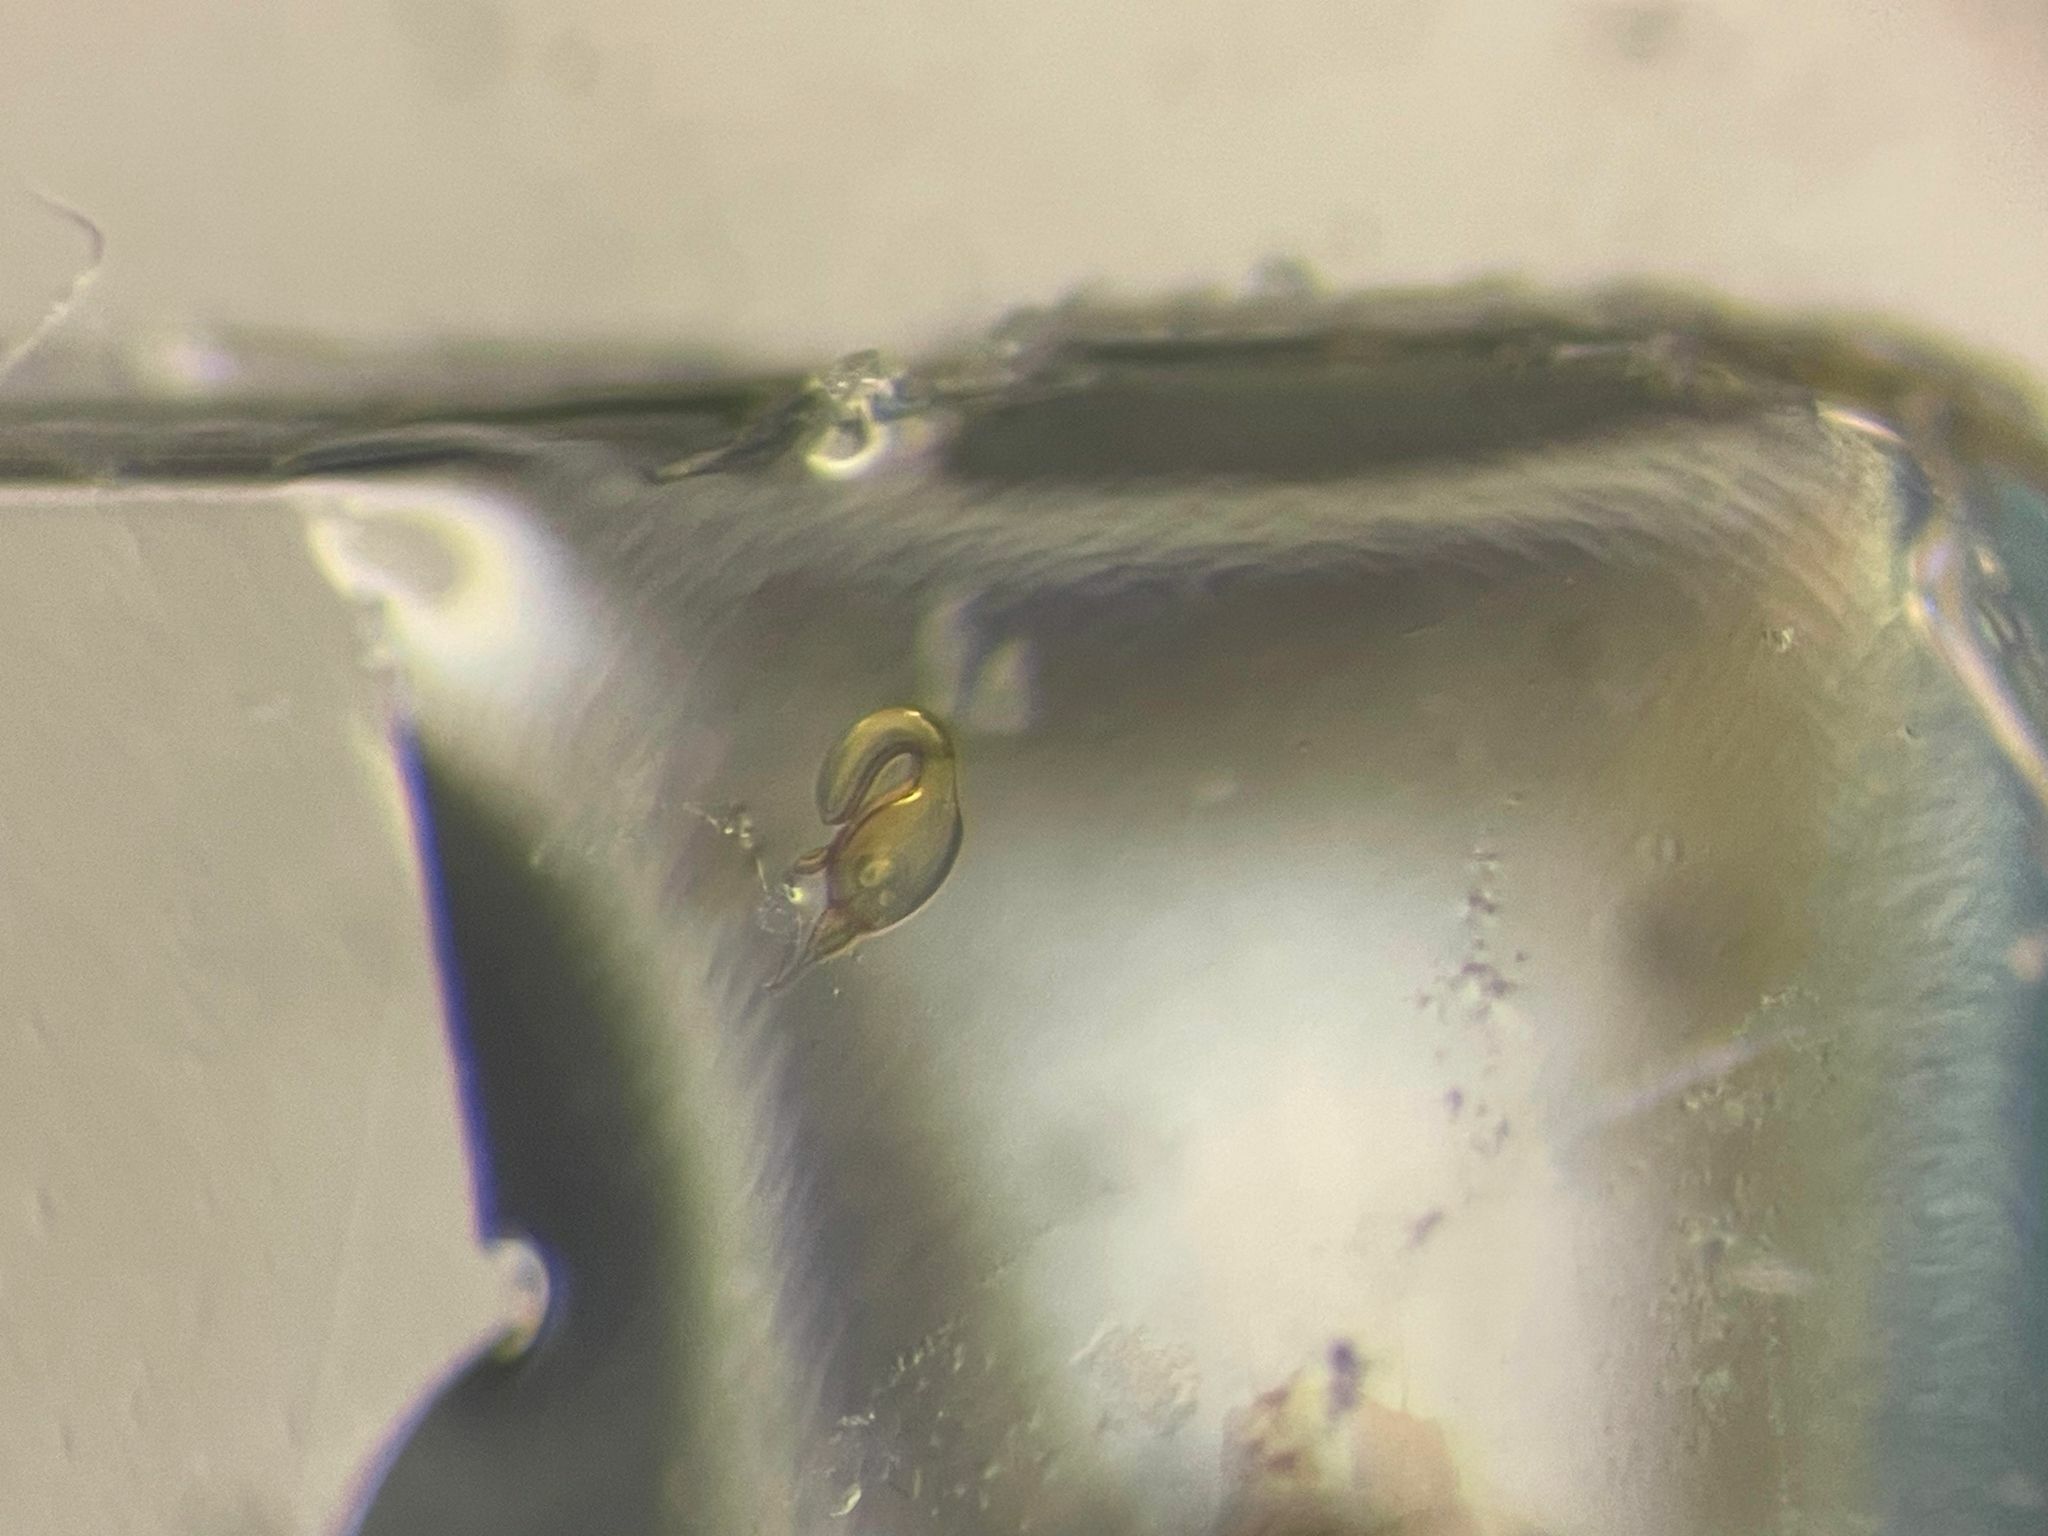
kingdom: Animalia
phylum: Arthropoda
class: Insecta
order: Coleoptera
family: Leiodidae
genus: Anisotoma
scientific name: Anisotoma basalis
